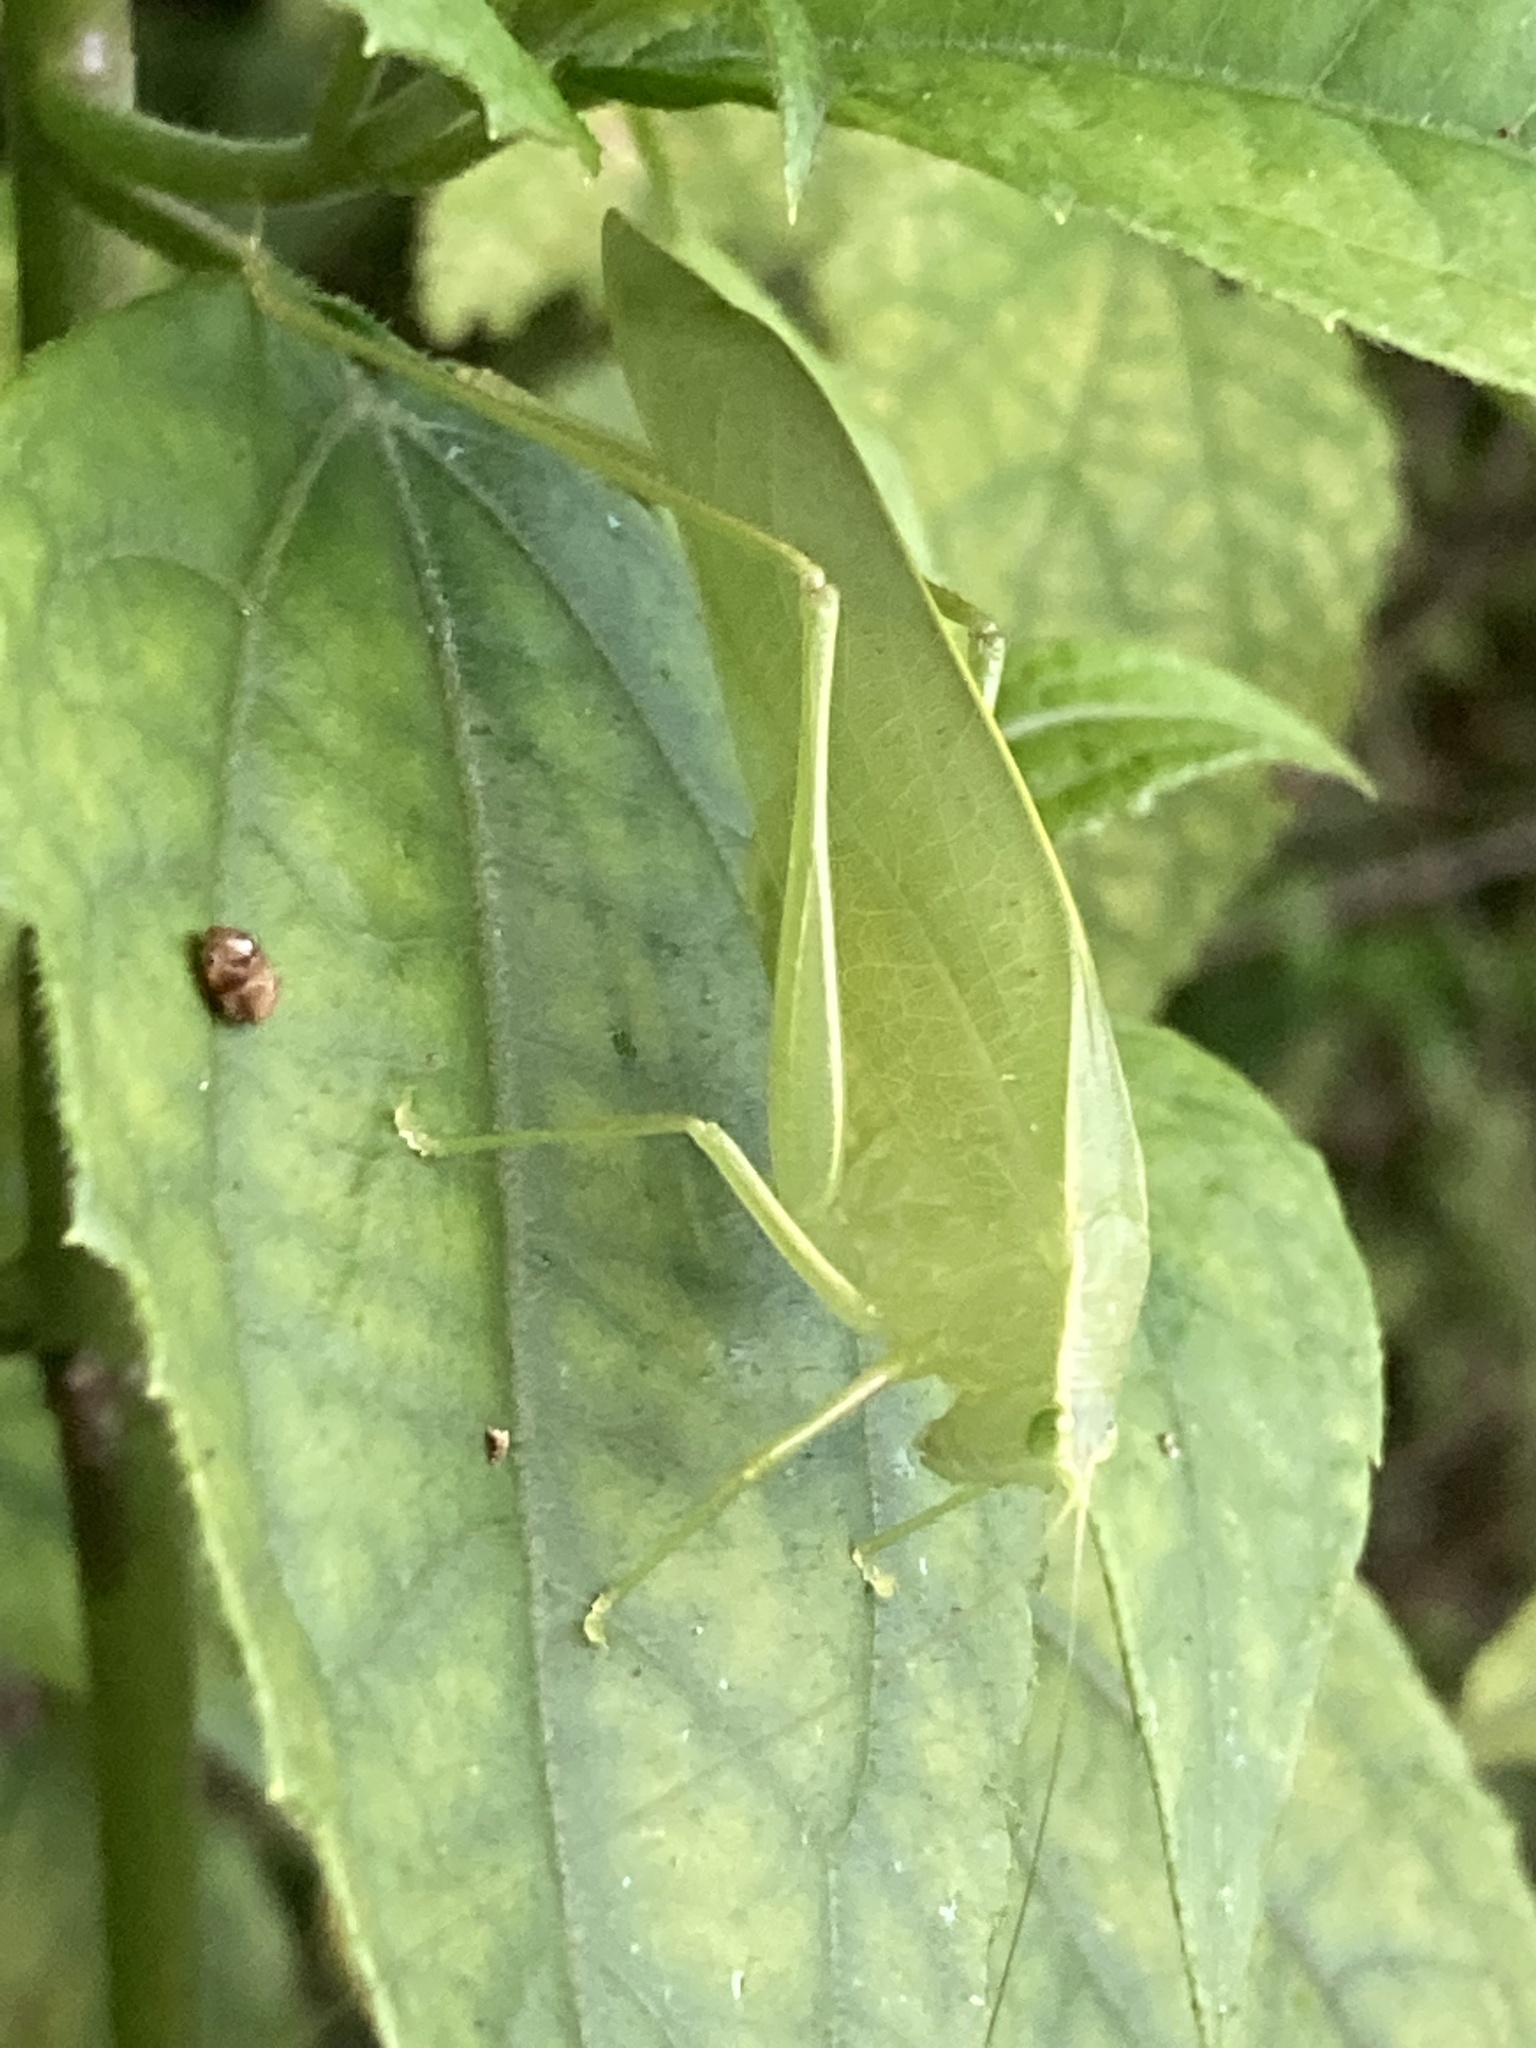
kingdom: Animalia
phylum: Arthropoda
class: Insecta
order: Orthoptera
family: Tettigoniidae
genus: Turpilia
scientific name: Turpilia rostrata
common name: Narrow-beaked katydid
